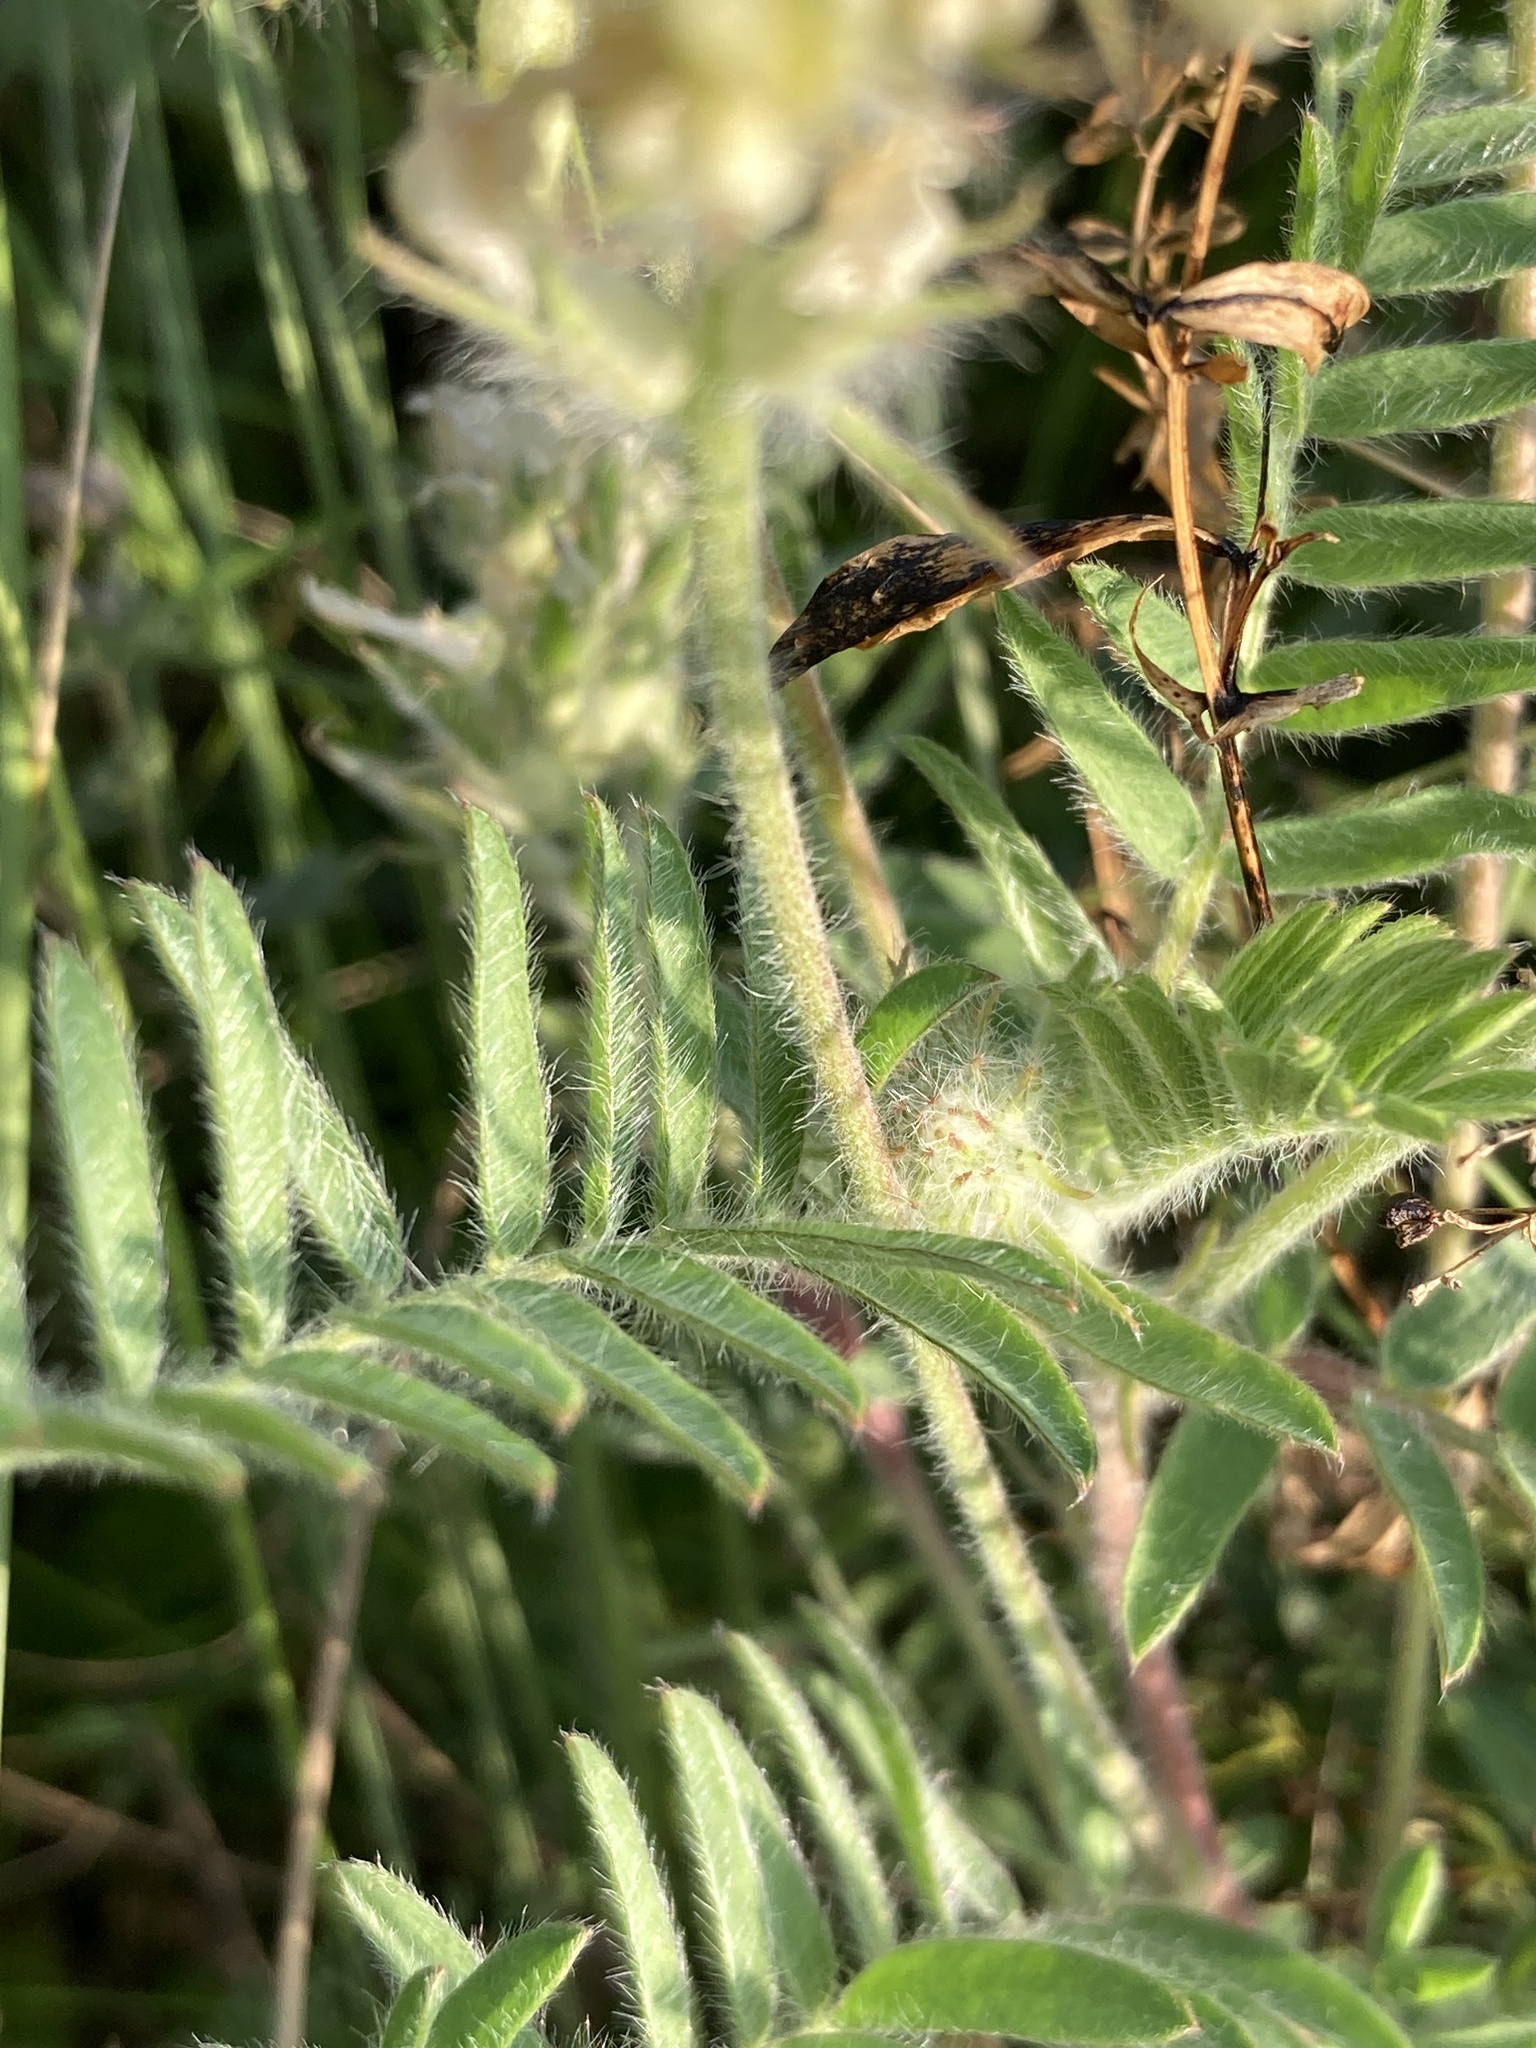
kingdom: Plantae
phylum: Tracheophyta
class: Magnoliopsida
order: Fabales
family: Fabaceae
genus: Oxytropis
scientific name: Oxytropis pilosa
